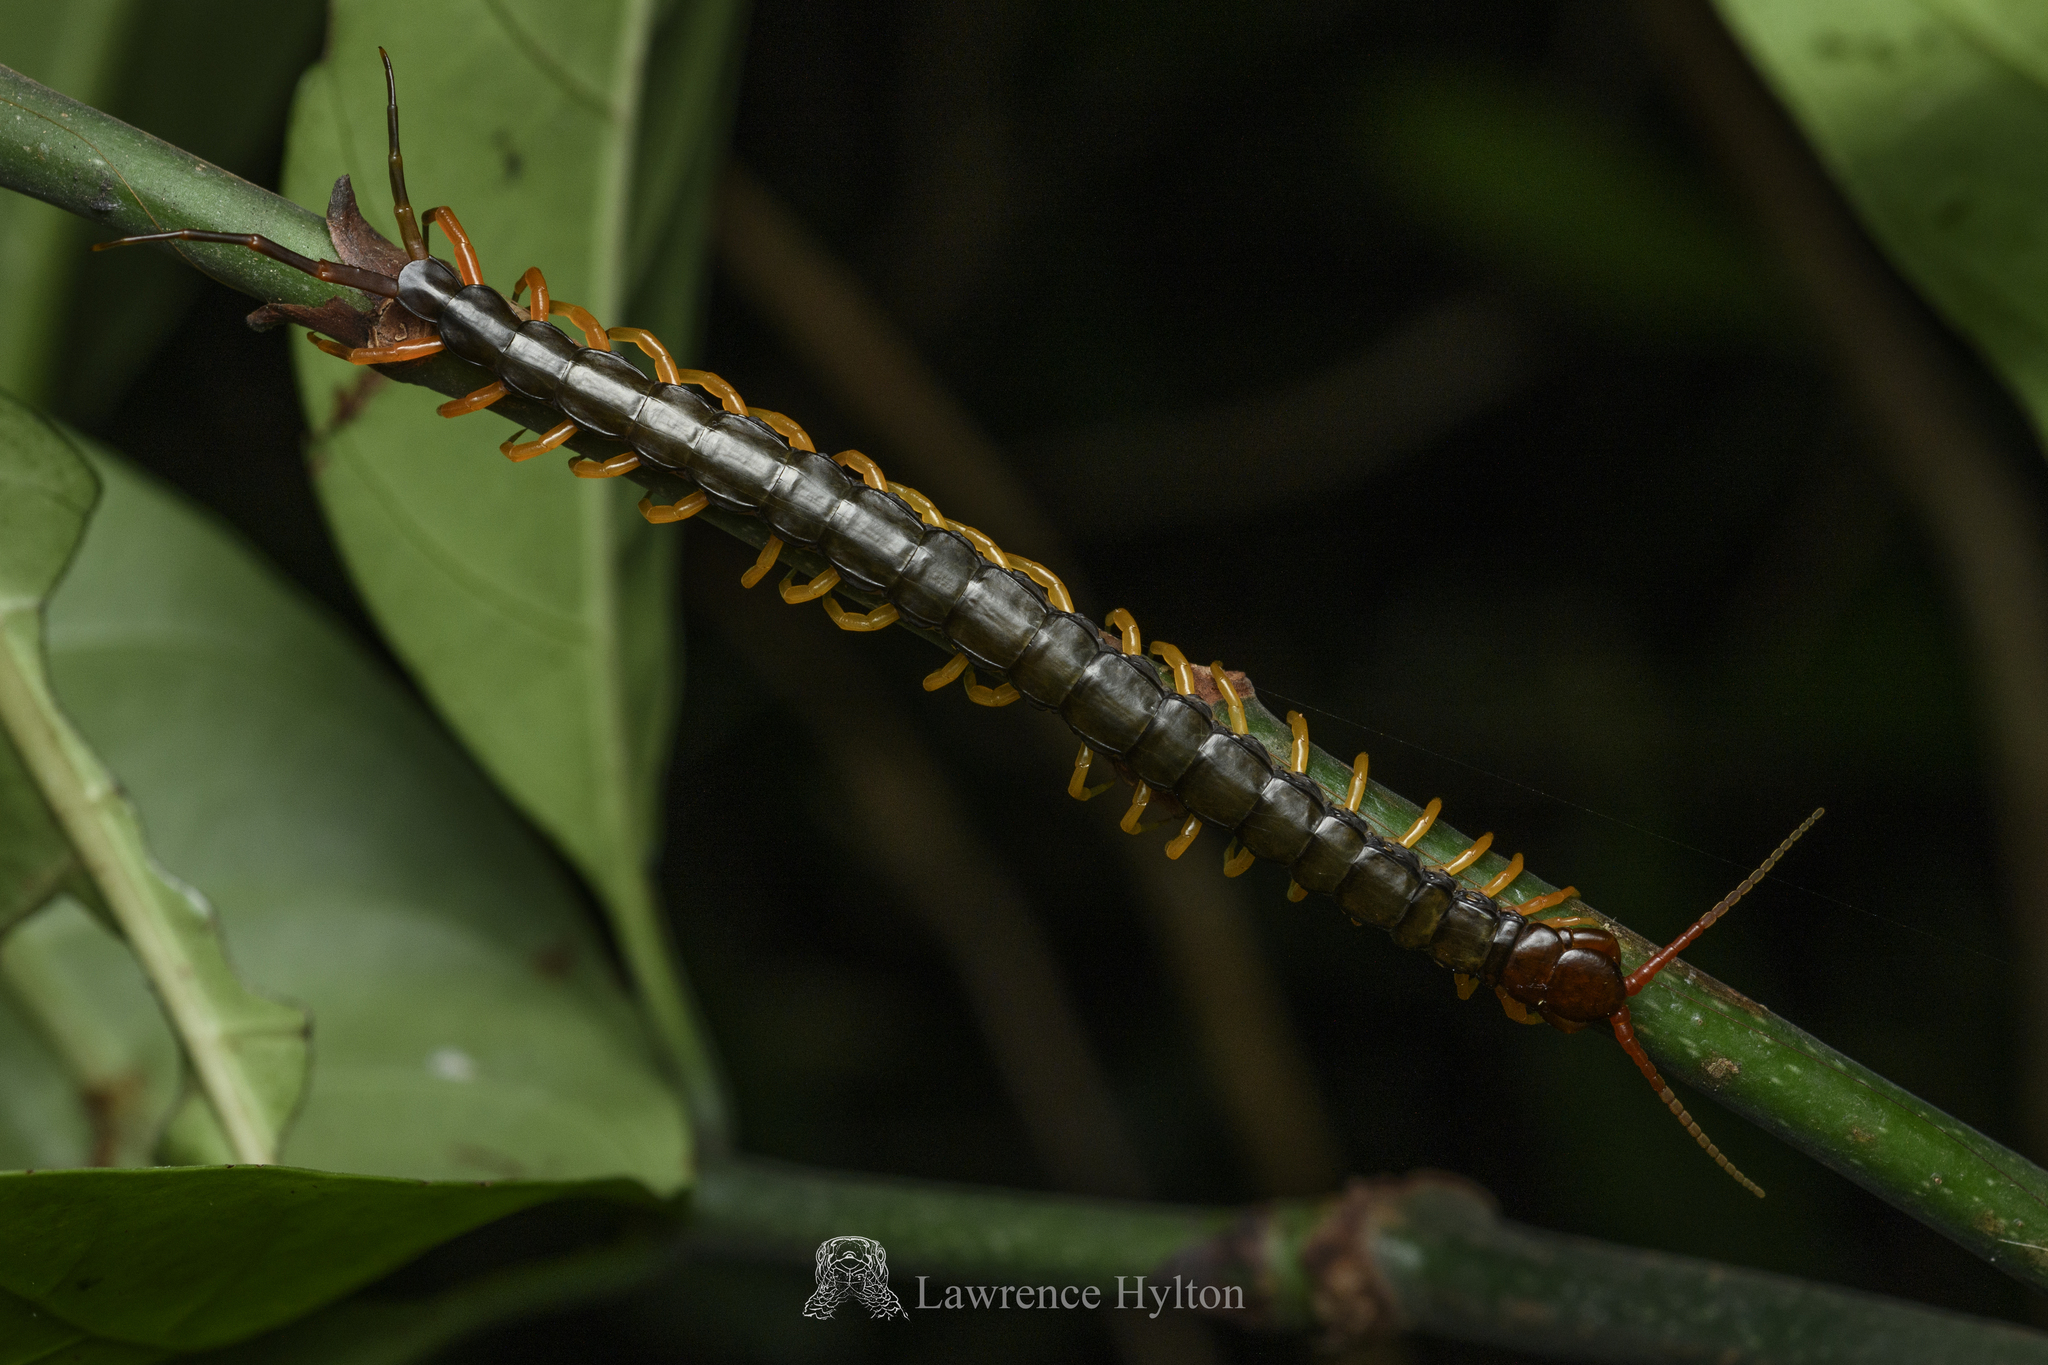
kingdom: Animalia
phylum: Arthropoda
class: Chilopoda
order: Scolopendromorpha
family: Scolopendridae
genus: Scolopendra
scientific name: Scolopendra hainana
